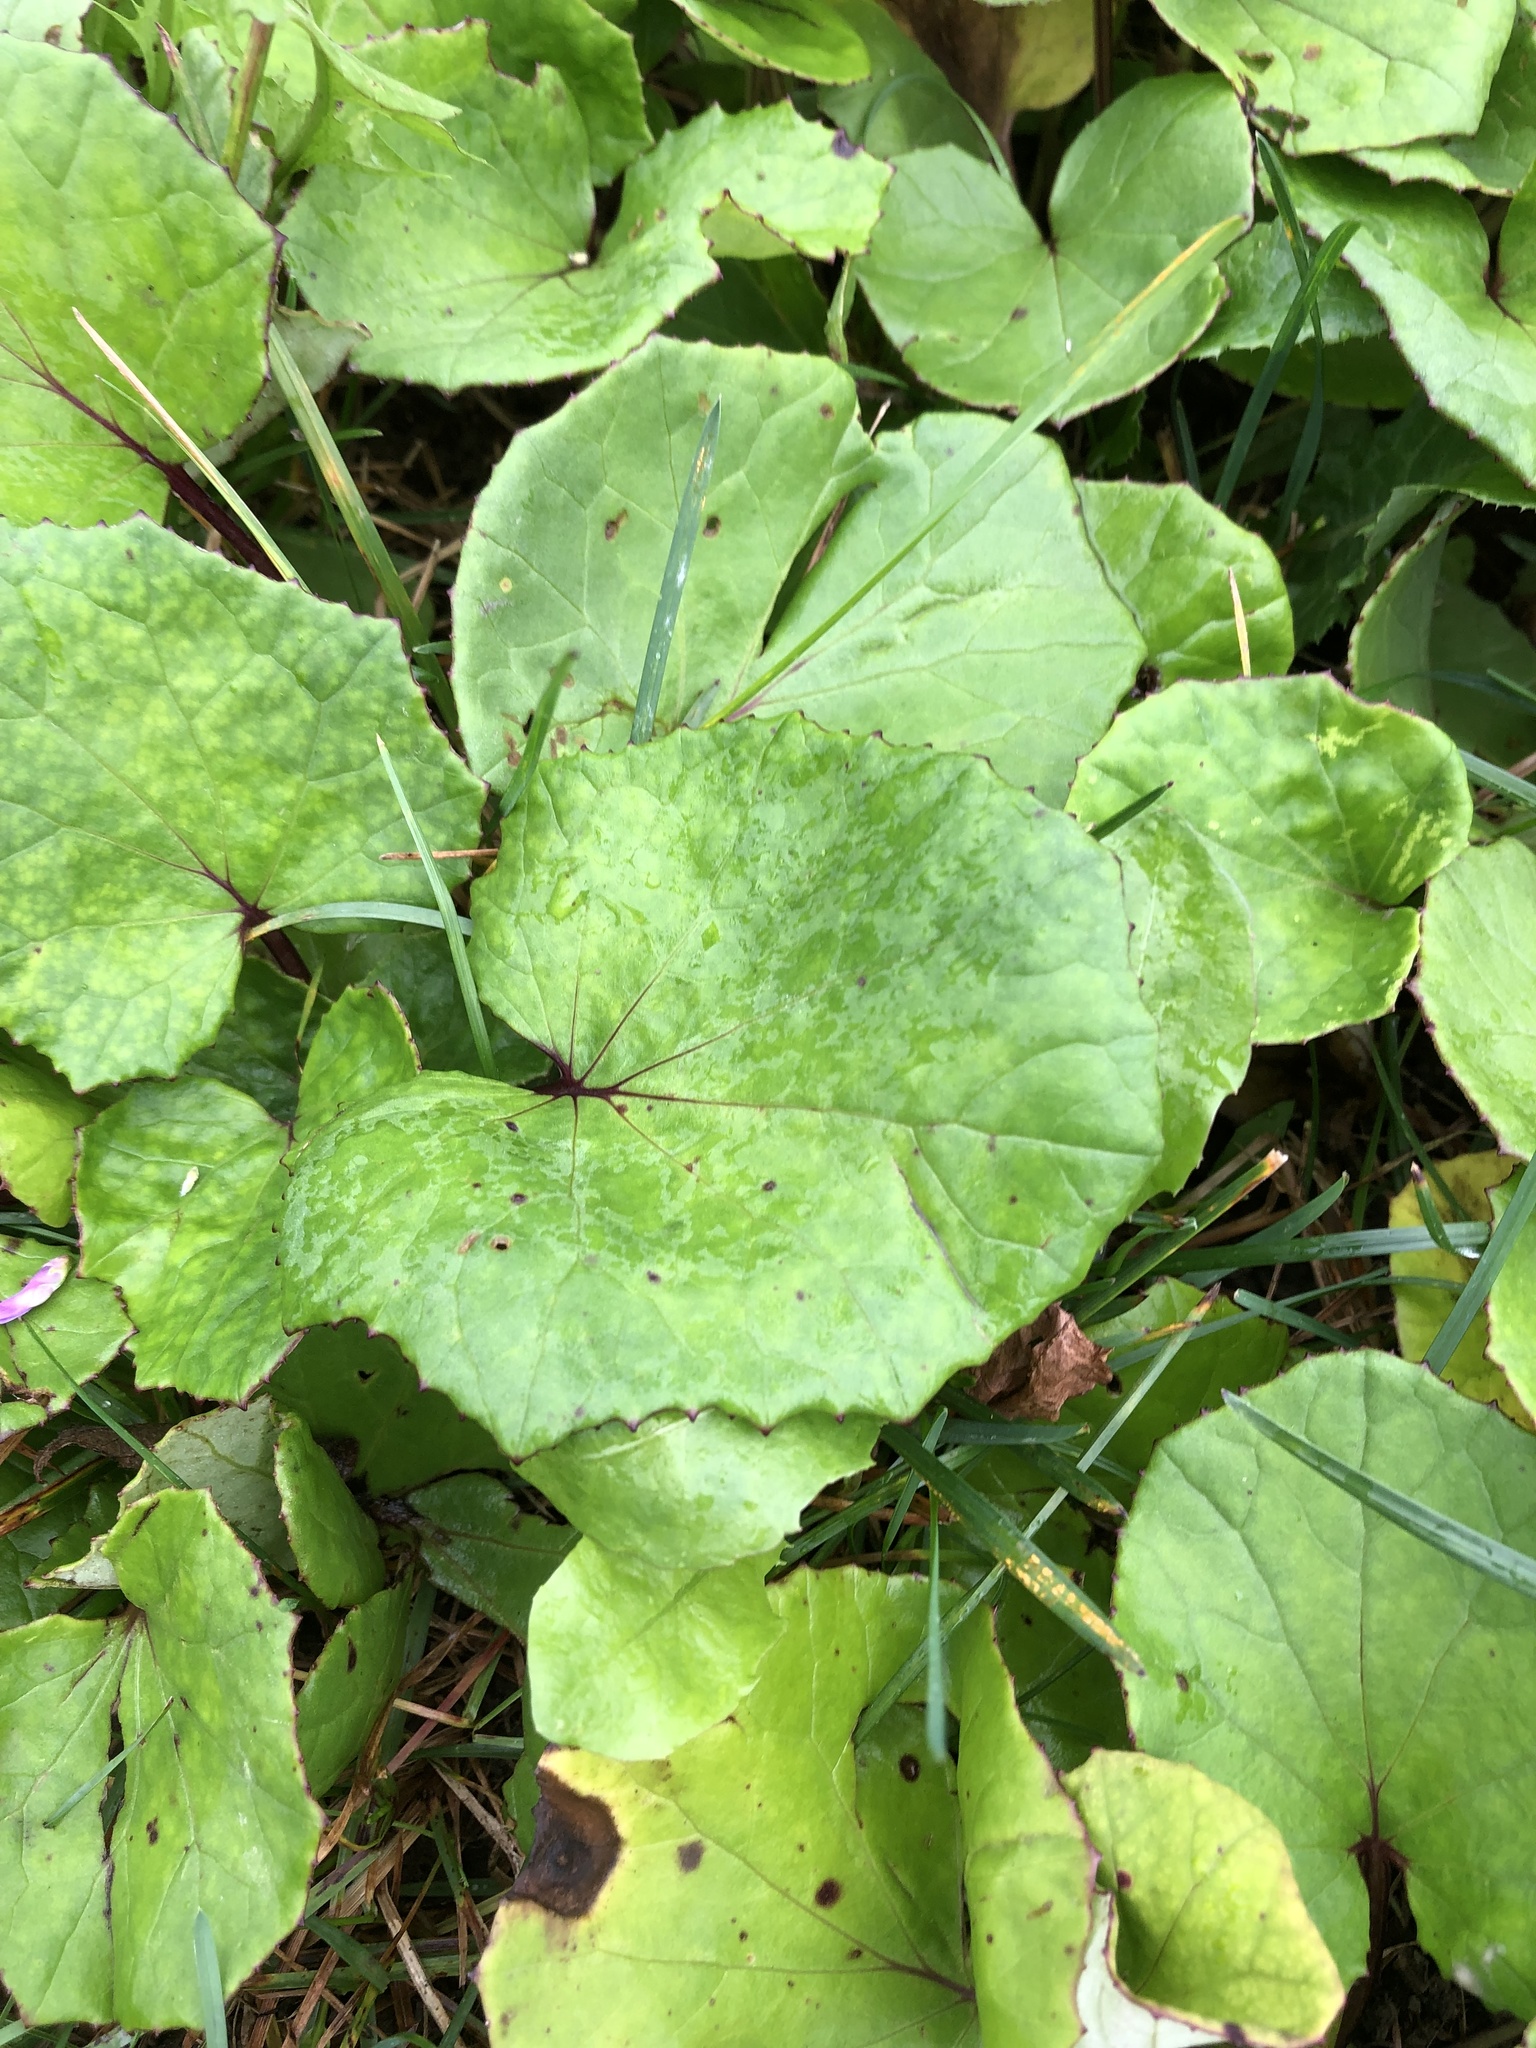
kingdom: Plantae
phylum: Tracheophyta
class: Magnoliopsida
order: Asterales
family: Asteraceae
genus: Tussilago
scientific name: Tussilago farfara
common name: Coltsfoot
